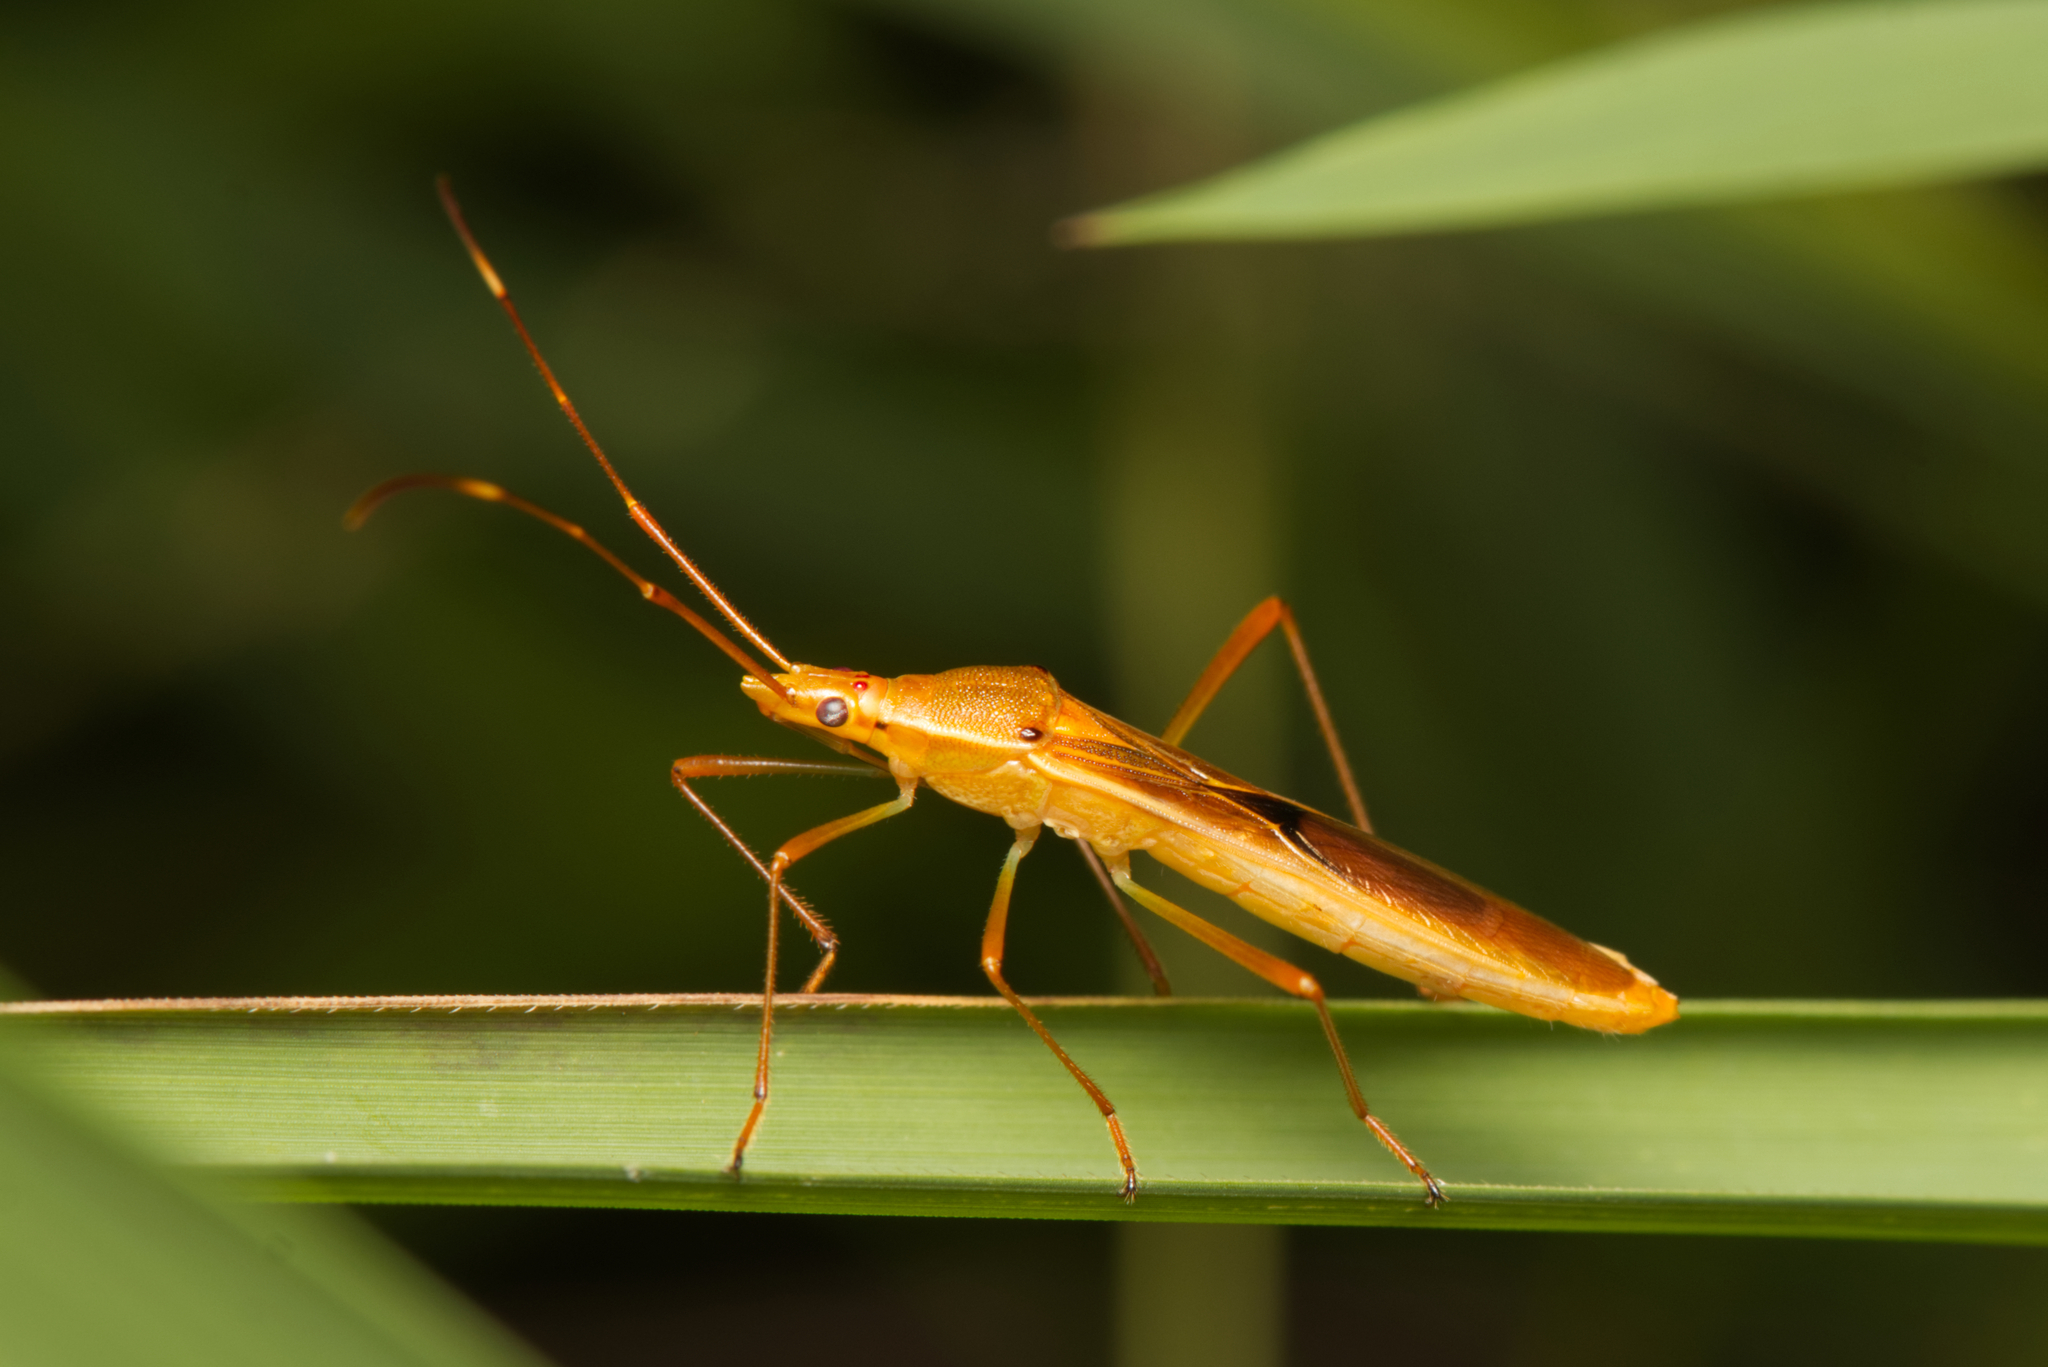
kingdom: Animalia
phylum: Arthropoda
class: Insecta
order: Hemiptera
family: Alydidae
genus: Leptocorisa
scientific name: Leptocorisa acuta
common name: Gandhi bug
